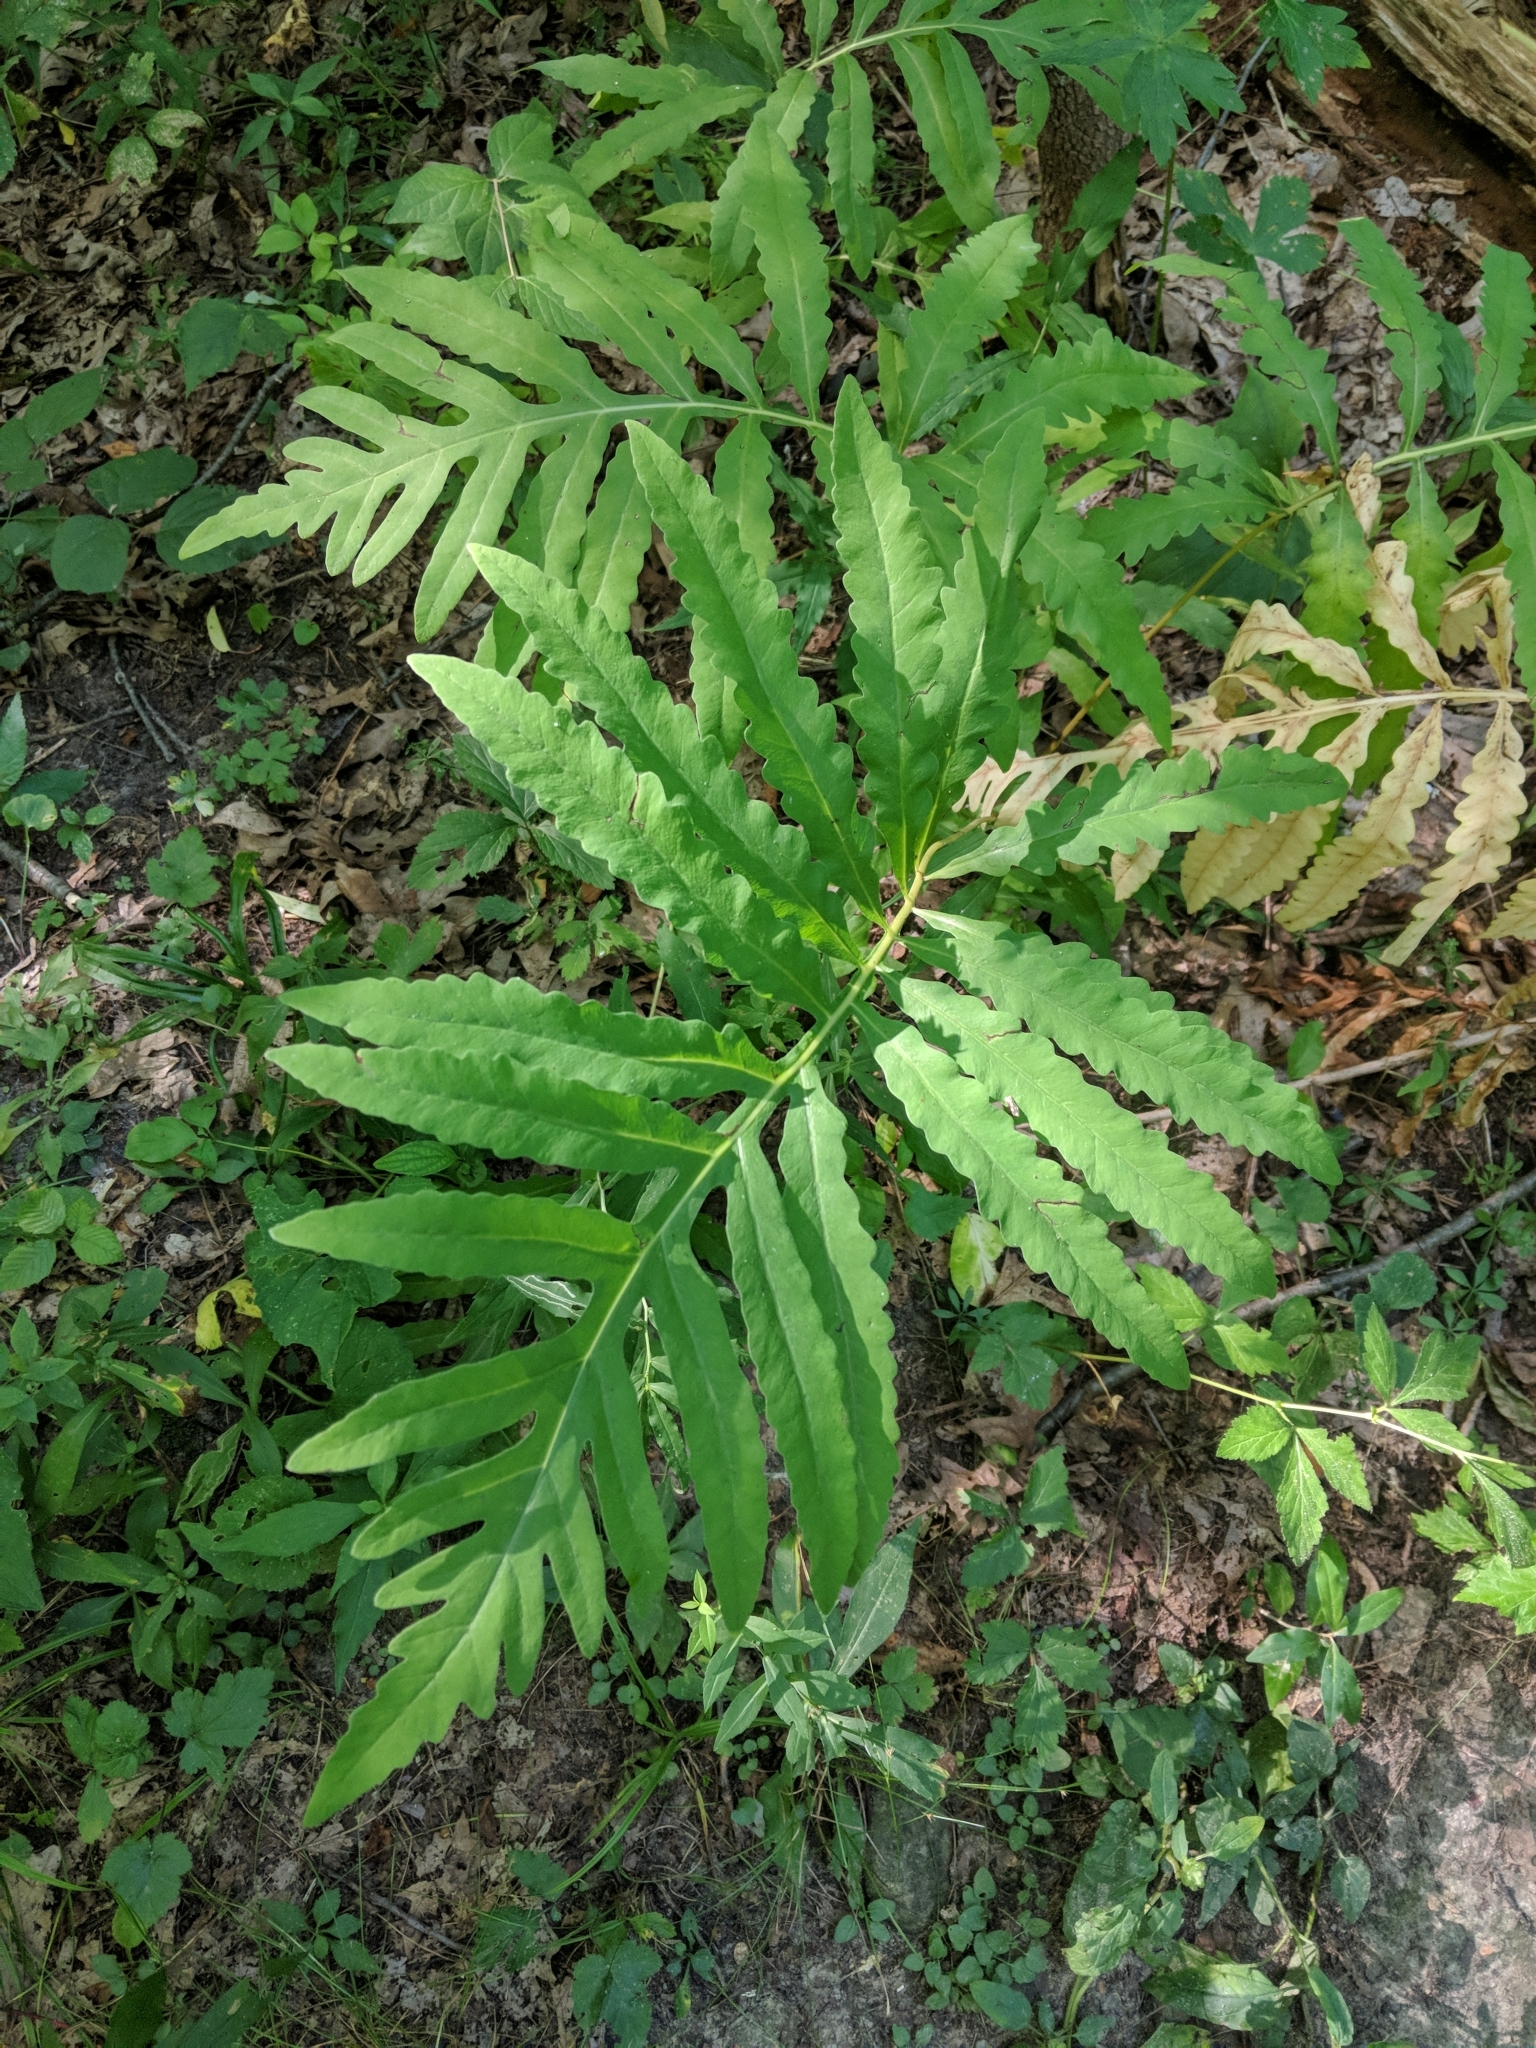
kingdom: Plantae
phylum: Tracheophyta
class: Polypodiopsida
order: Polypodiales
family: Onocleaceae
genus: Onoclea
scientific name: Onoclea sensibilis
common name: Sensitive fern
